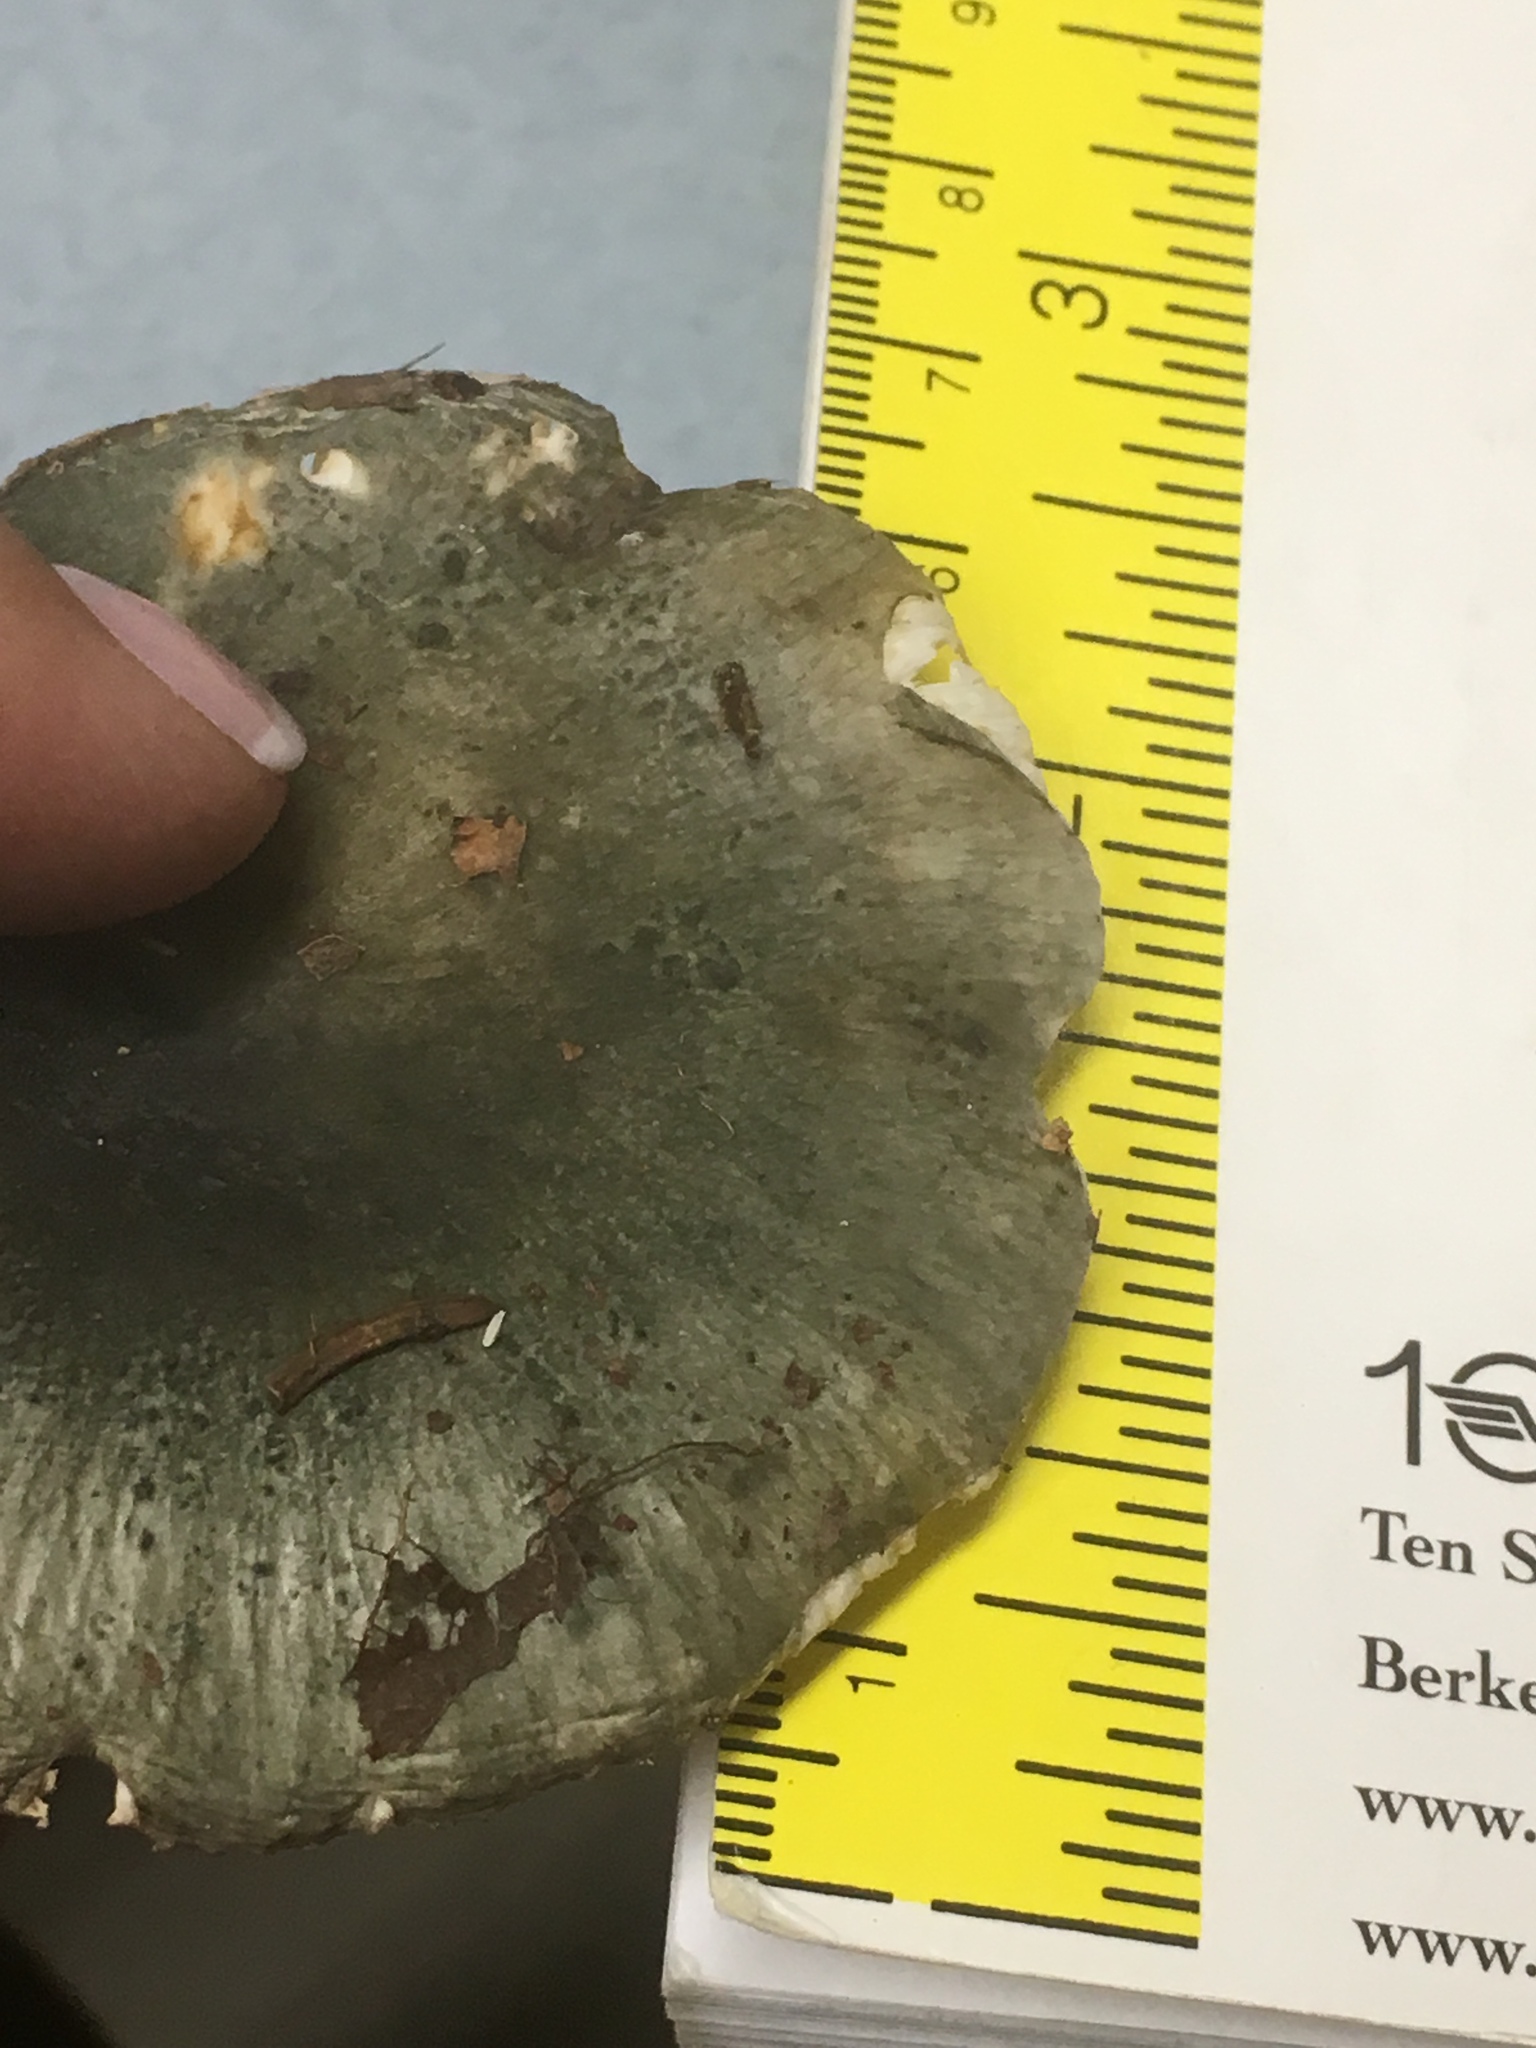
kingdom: Fungi
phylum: Basidiomycota
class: Agaricomycetes
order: Russulales
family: Russulaceae
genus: Russula
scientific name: Russula parvovirescens
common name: Blue-green cracking russula
